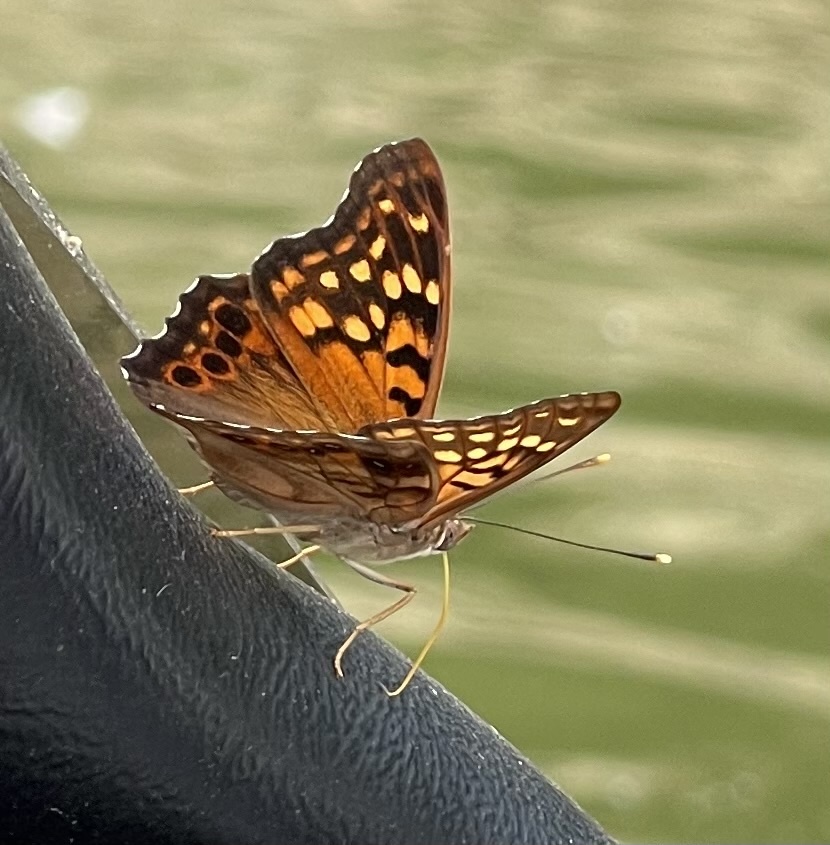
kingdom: Animalia
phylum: Arthropoda
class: Insecta
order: Lepidoptera
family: Nymphalidae
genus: Asterocampa
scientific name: Asterocampa clyton
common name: Tawny emperor
